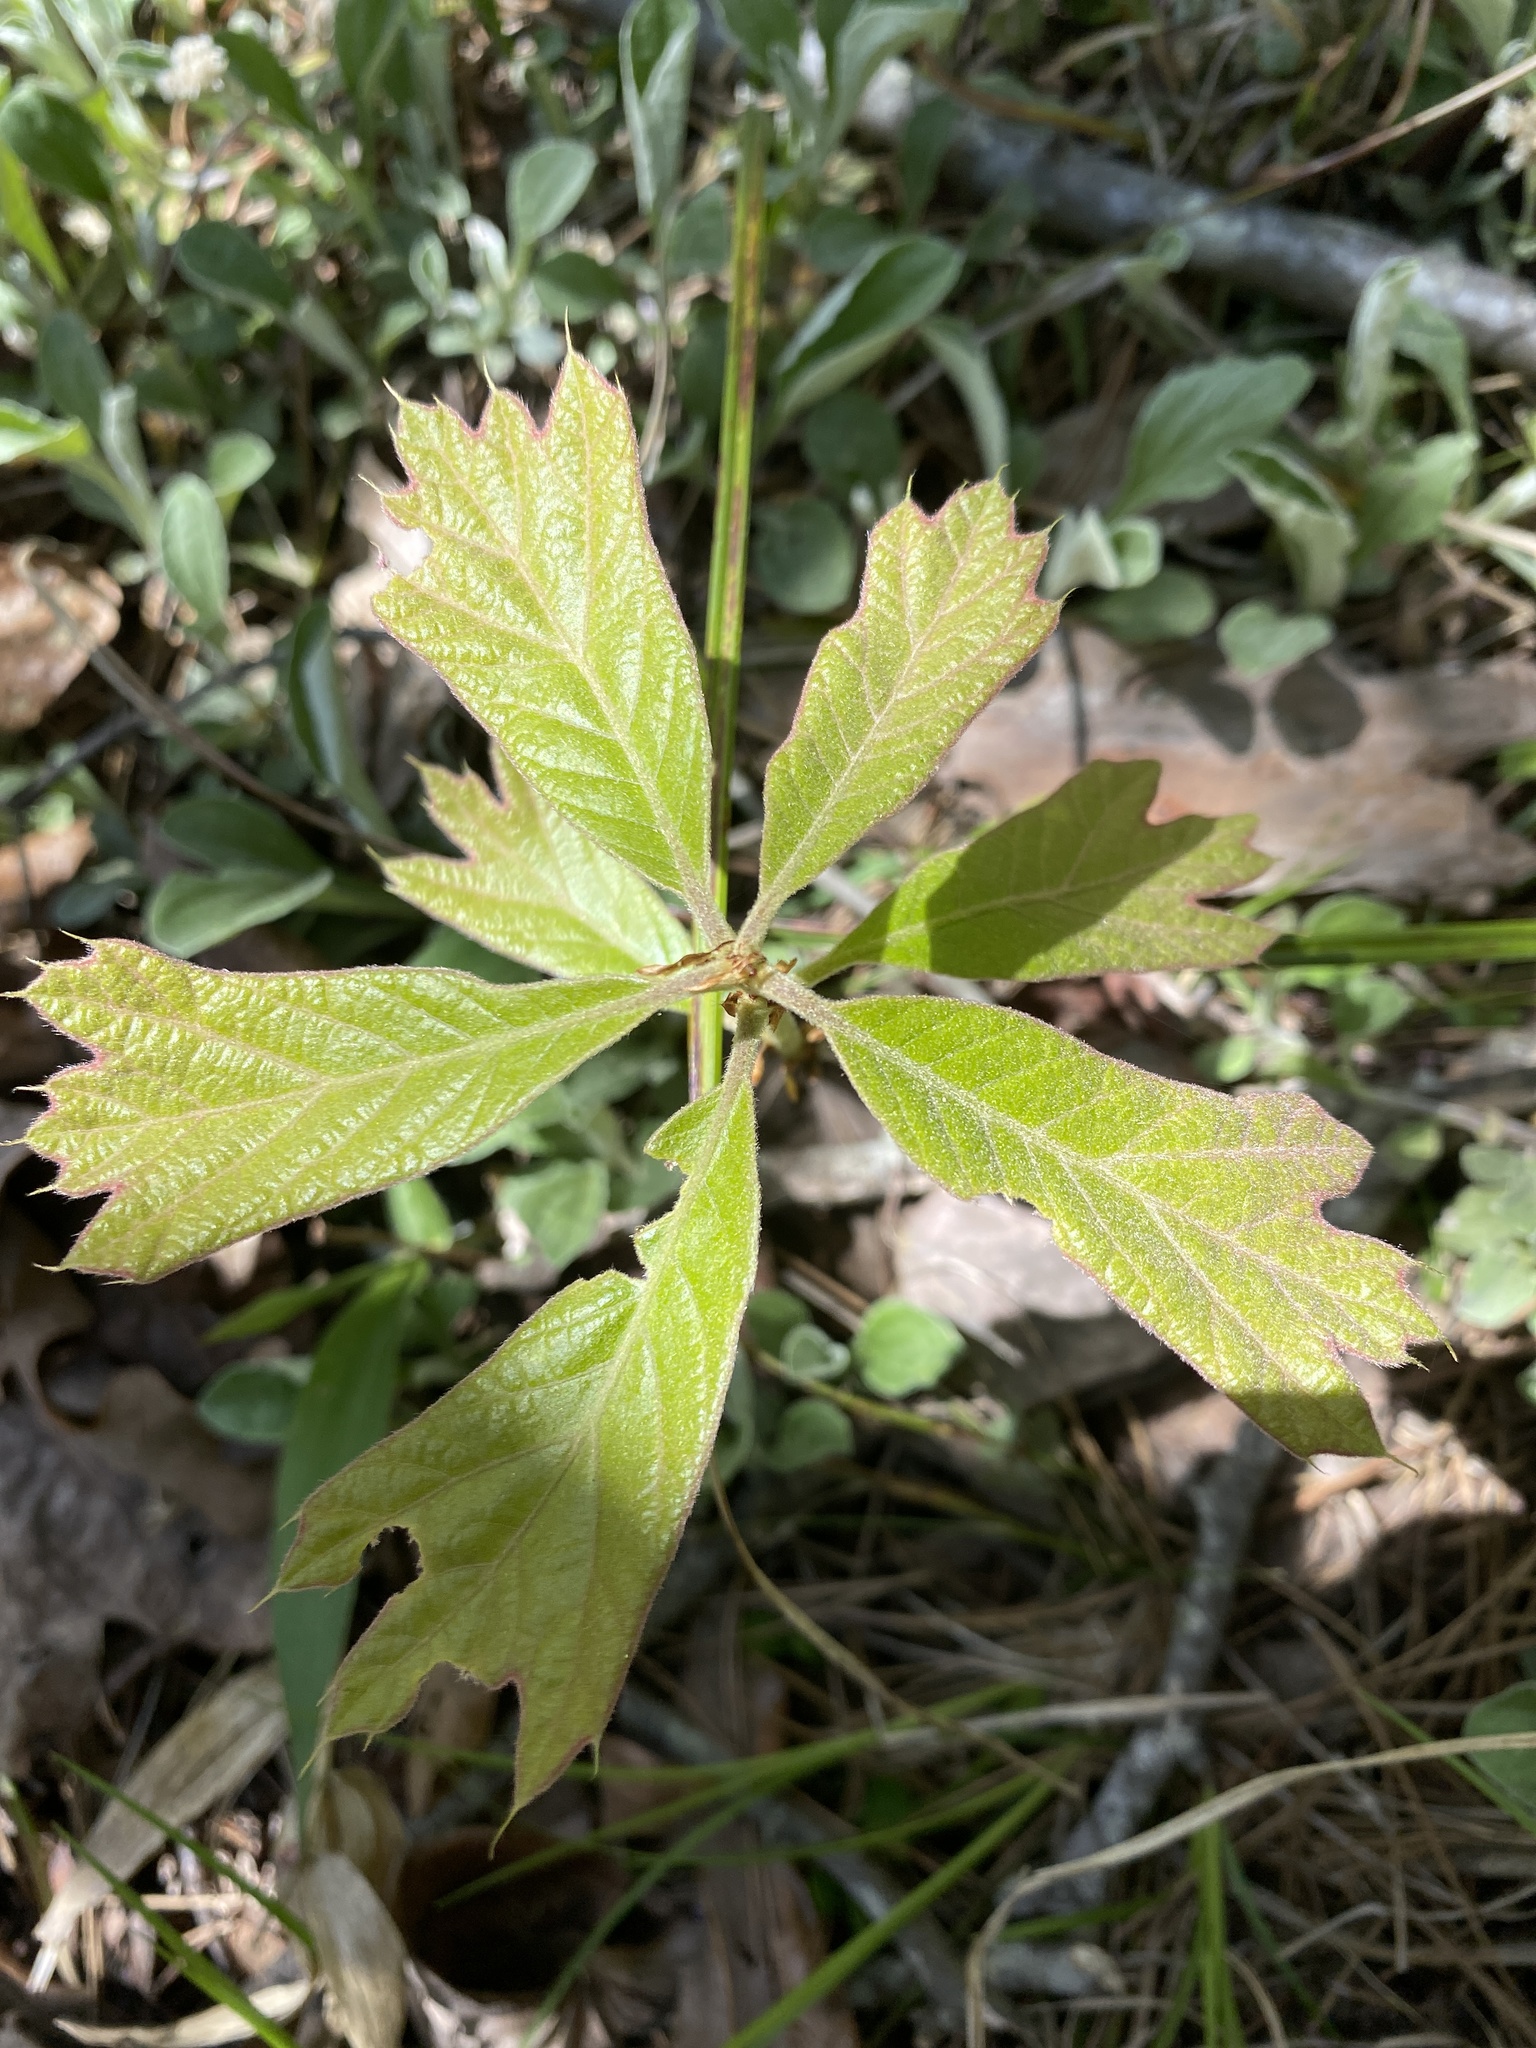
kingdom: Plantae
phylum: Tracheophyta
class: Magnoliopsida
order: Fagales
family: Fagaceae
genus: Quercus
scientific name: Quercus falcata
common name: Southern red oak
